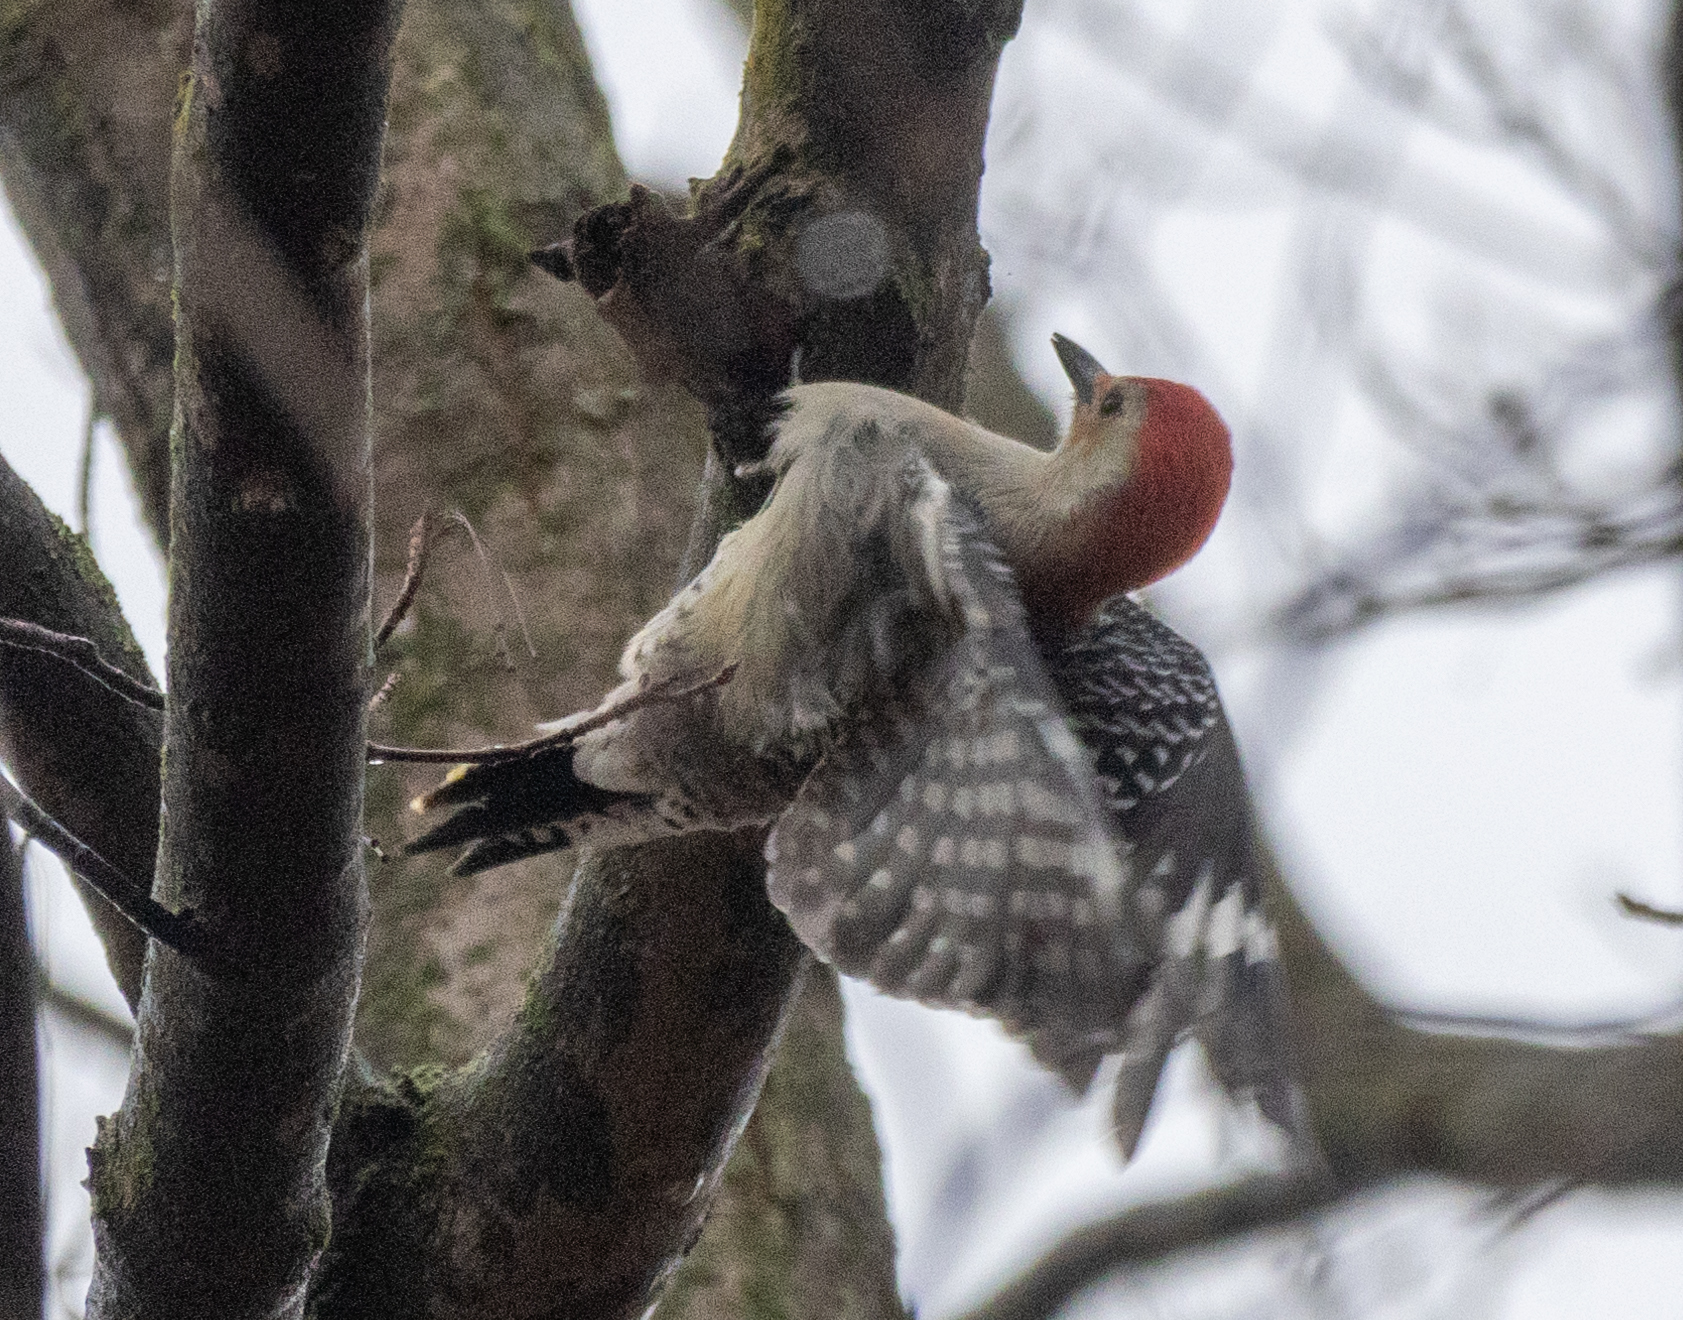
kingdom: Animalia
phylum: Chordata
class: Aves
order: Piciformes
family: Picidae
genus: Melanerpes
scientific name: Melanerpes carolinus
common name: Red-bellied woodpecker
